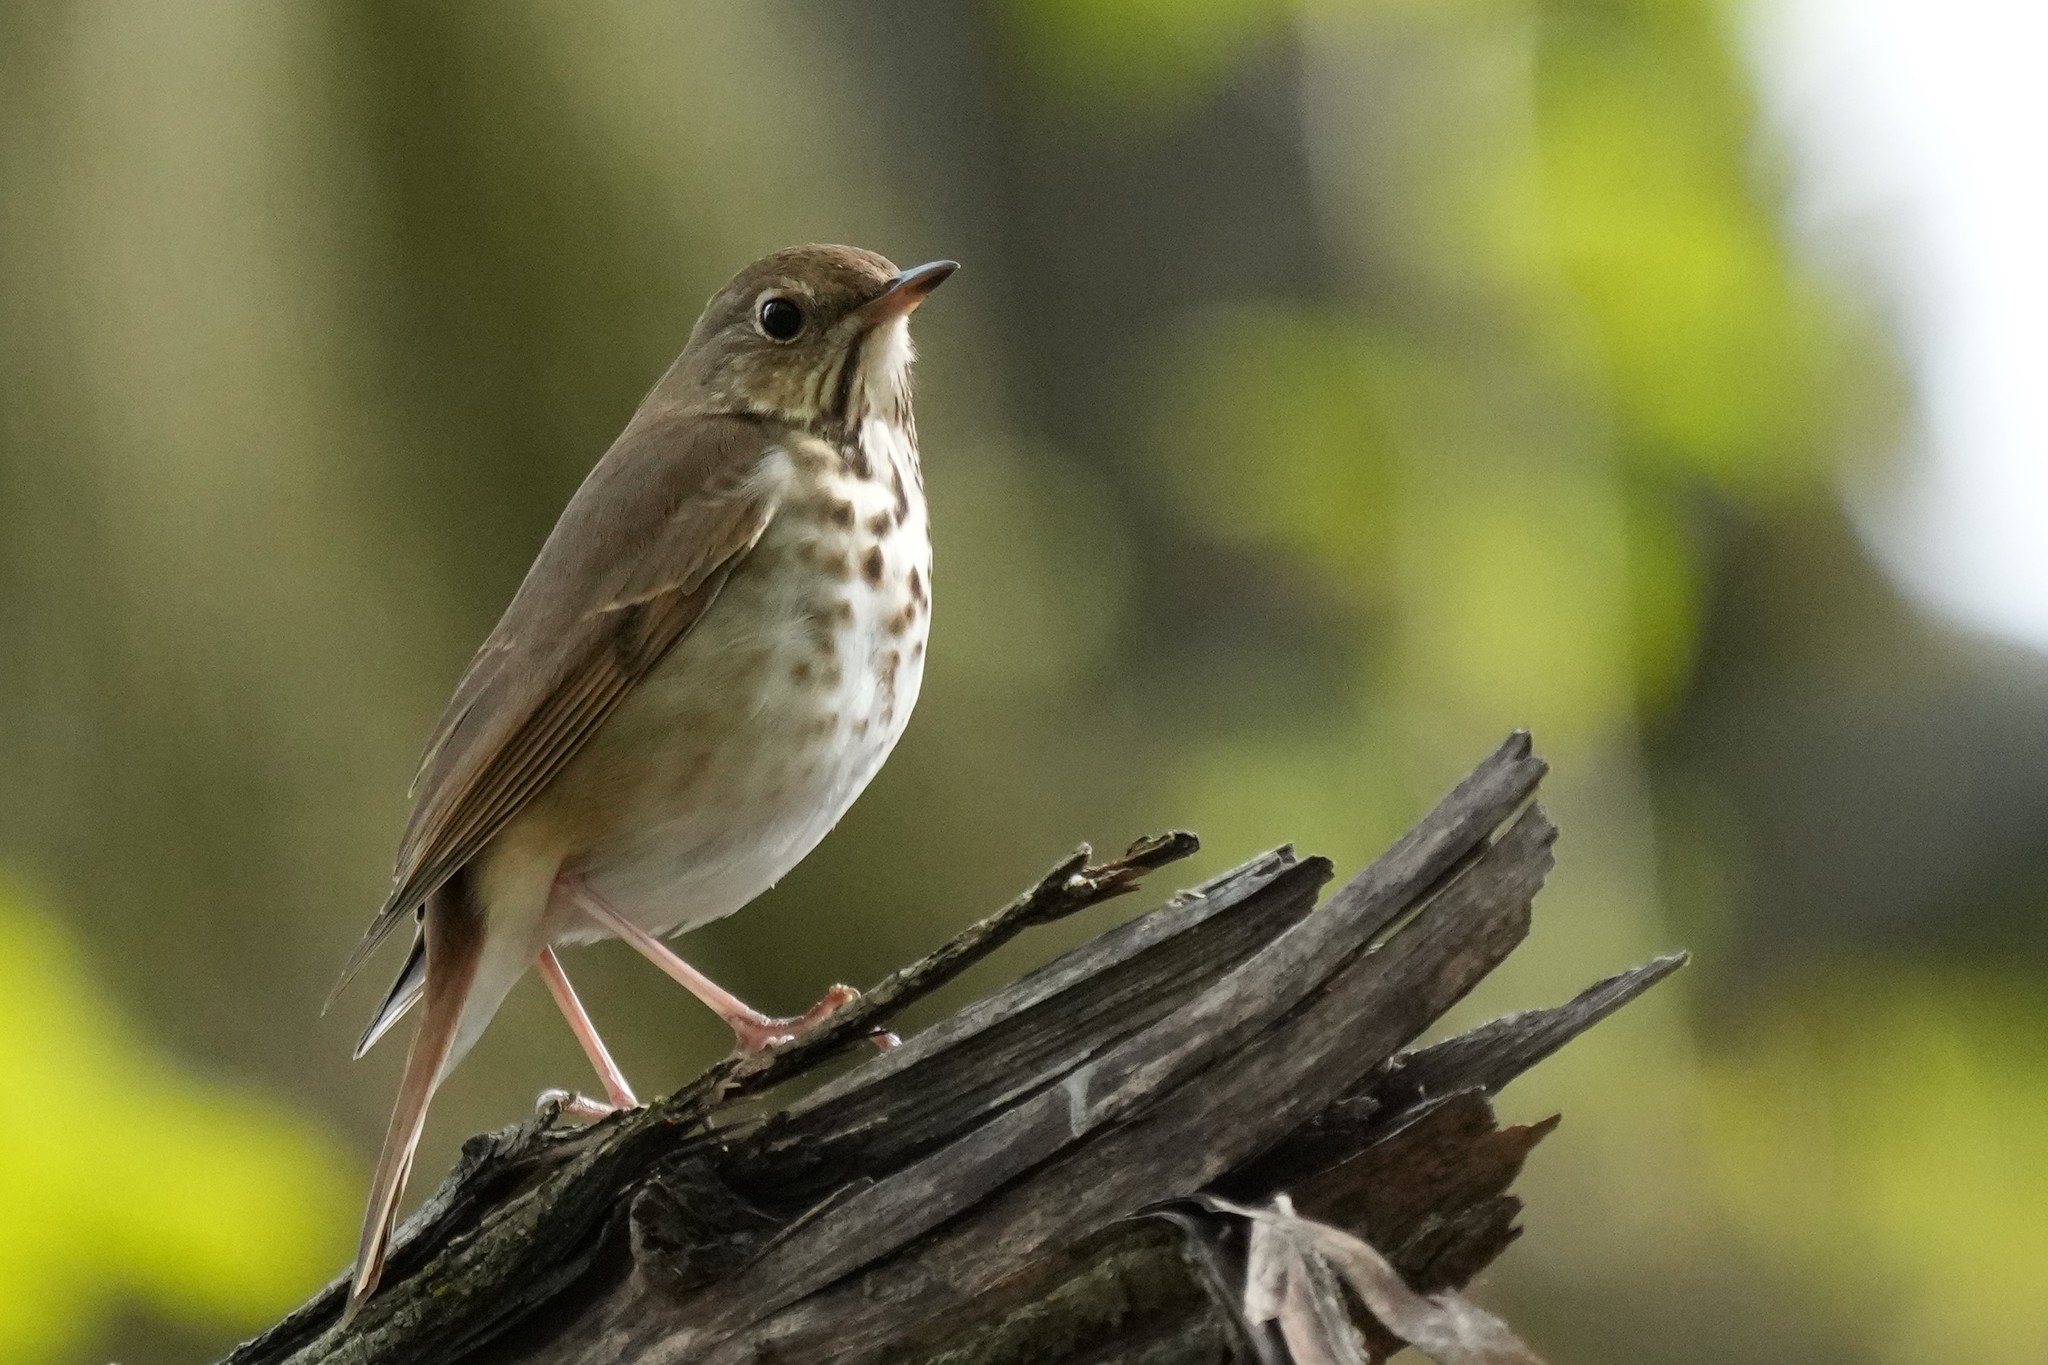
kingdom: Animalia
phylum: Chordata
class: Aves
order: Passeriformes
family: Turdidae
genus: Catharus
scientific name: Catharus guttatus
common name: Hermit thrush
